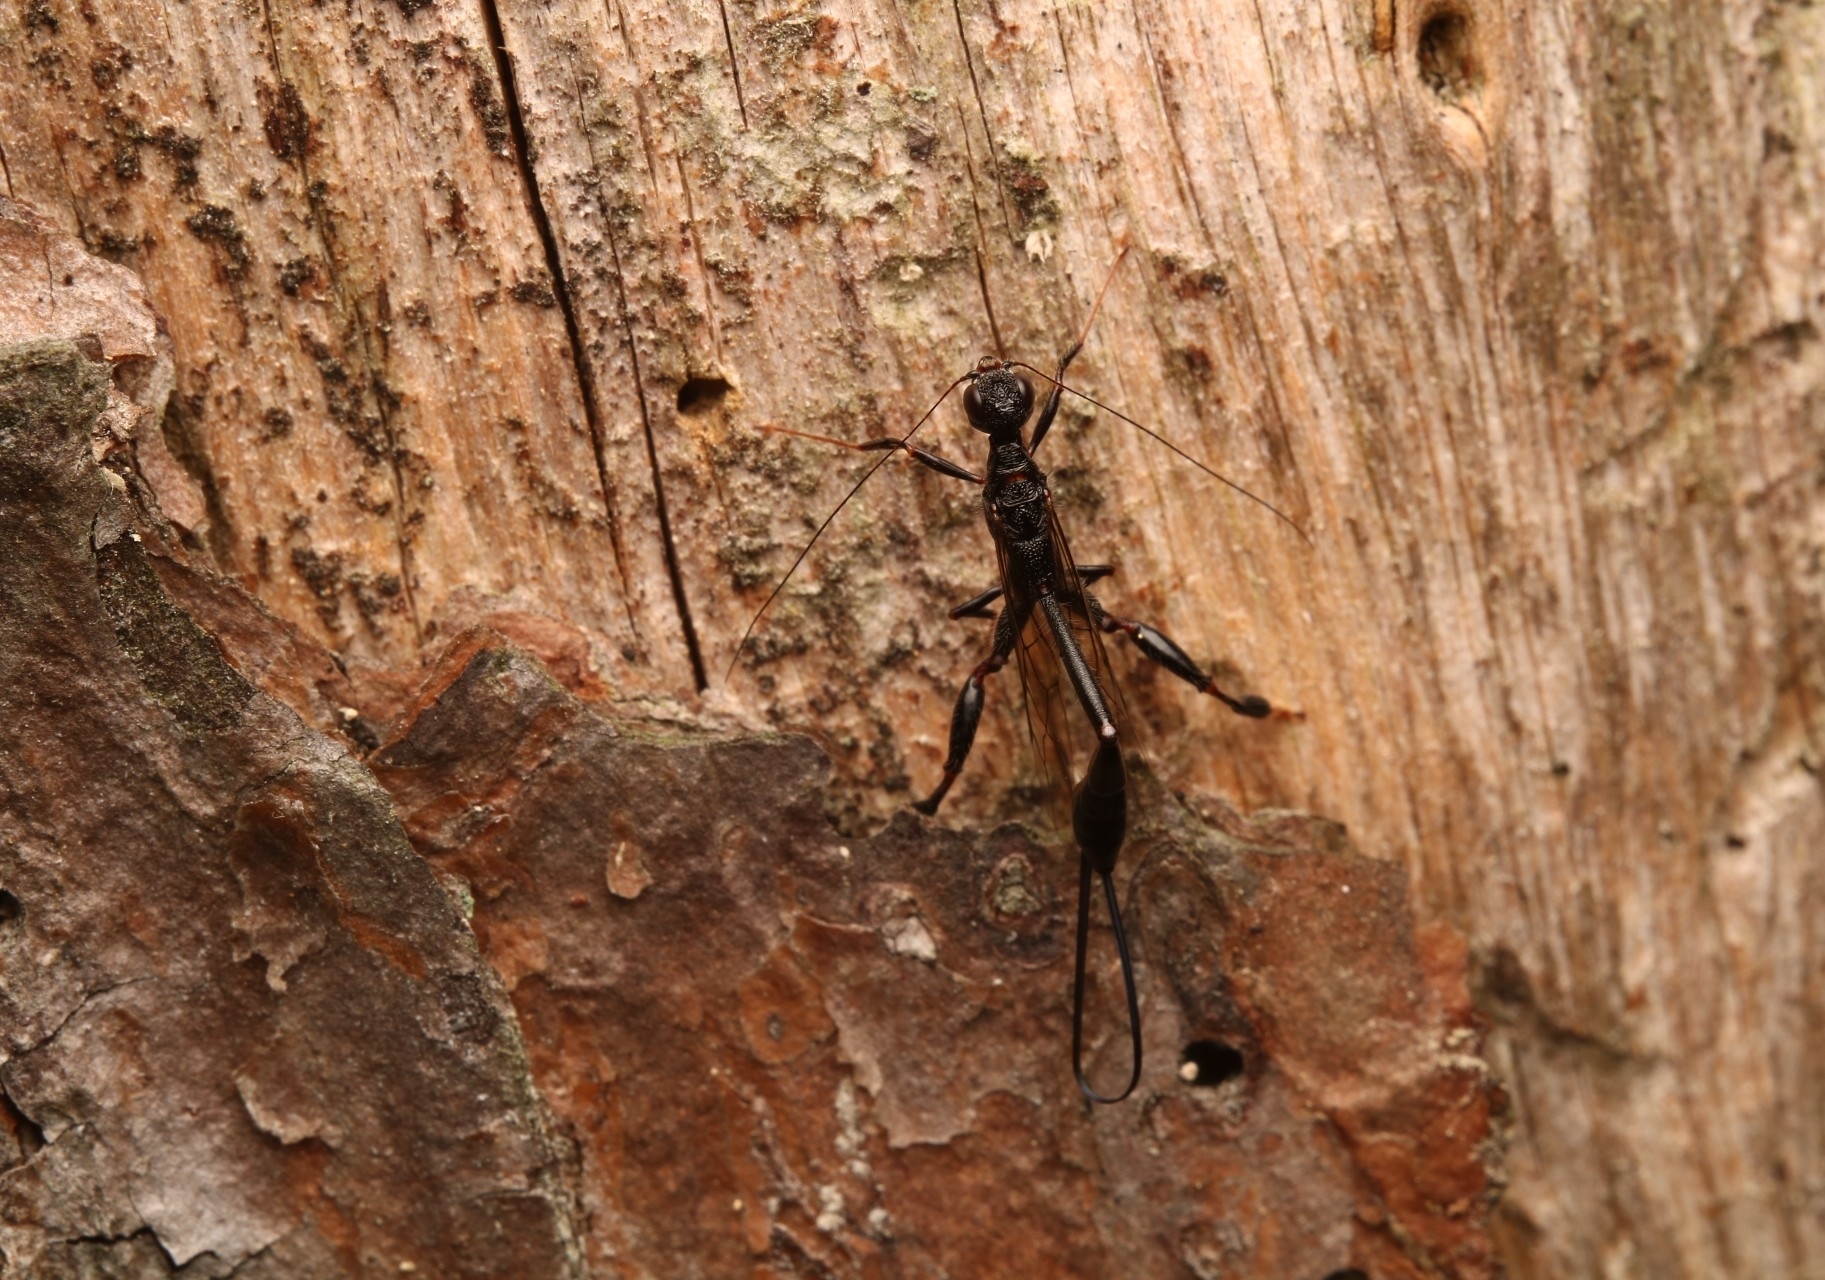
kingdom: Animalia
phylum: Arthropoda
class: Insecta
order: Hymenoptera
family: Stephanidae
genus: Megischus
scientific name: Megischus
